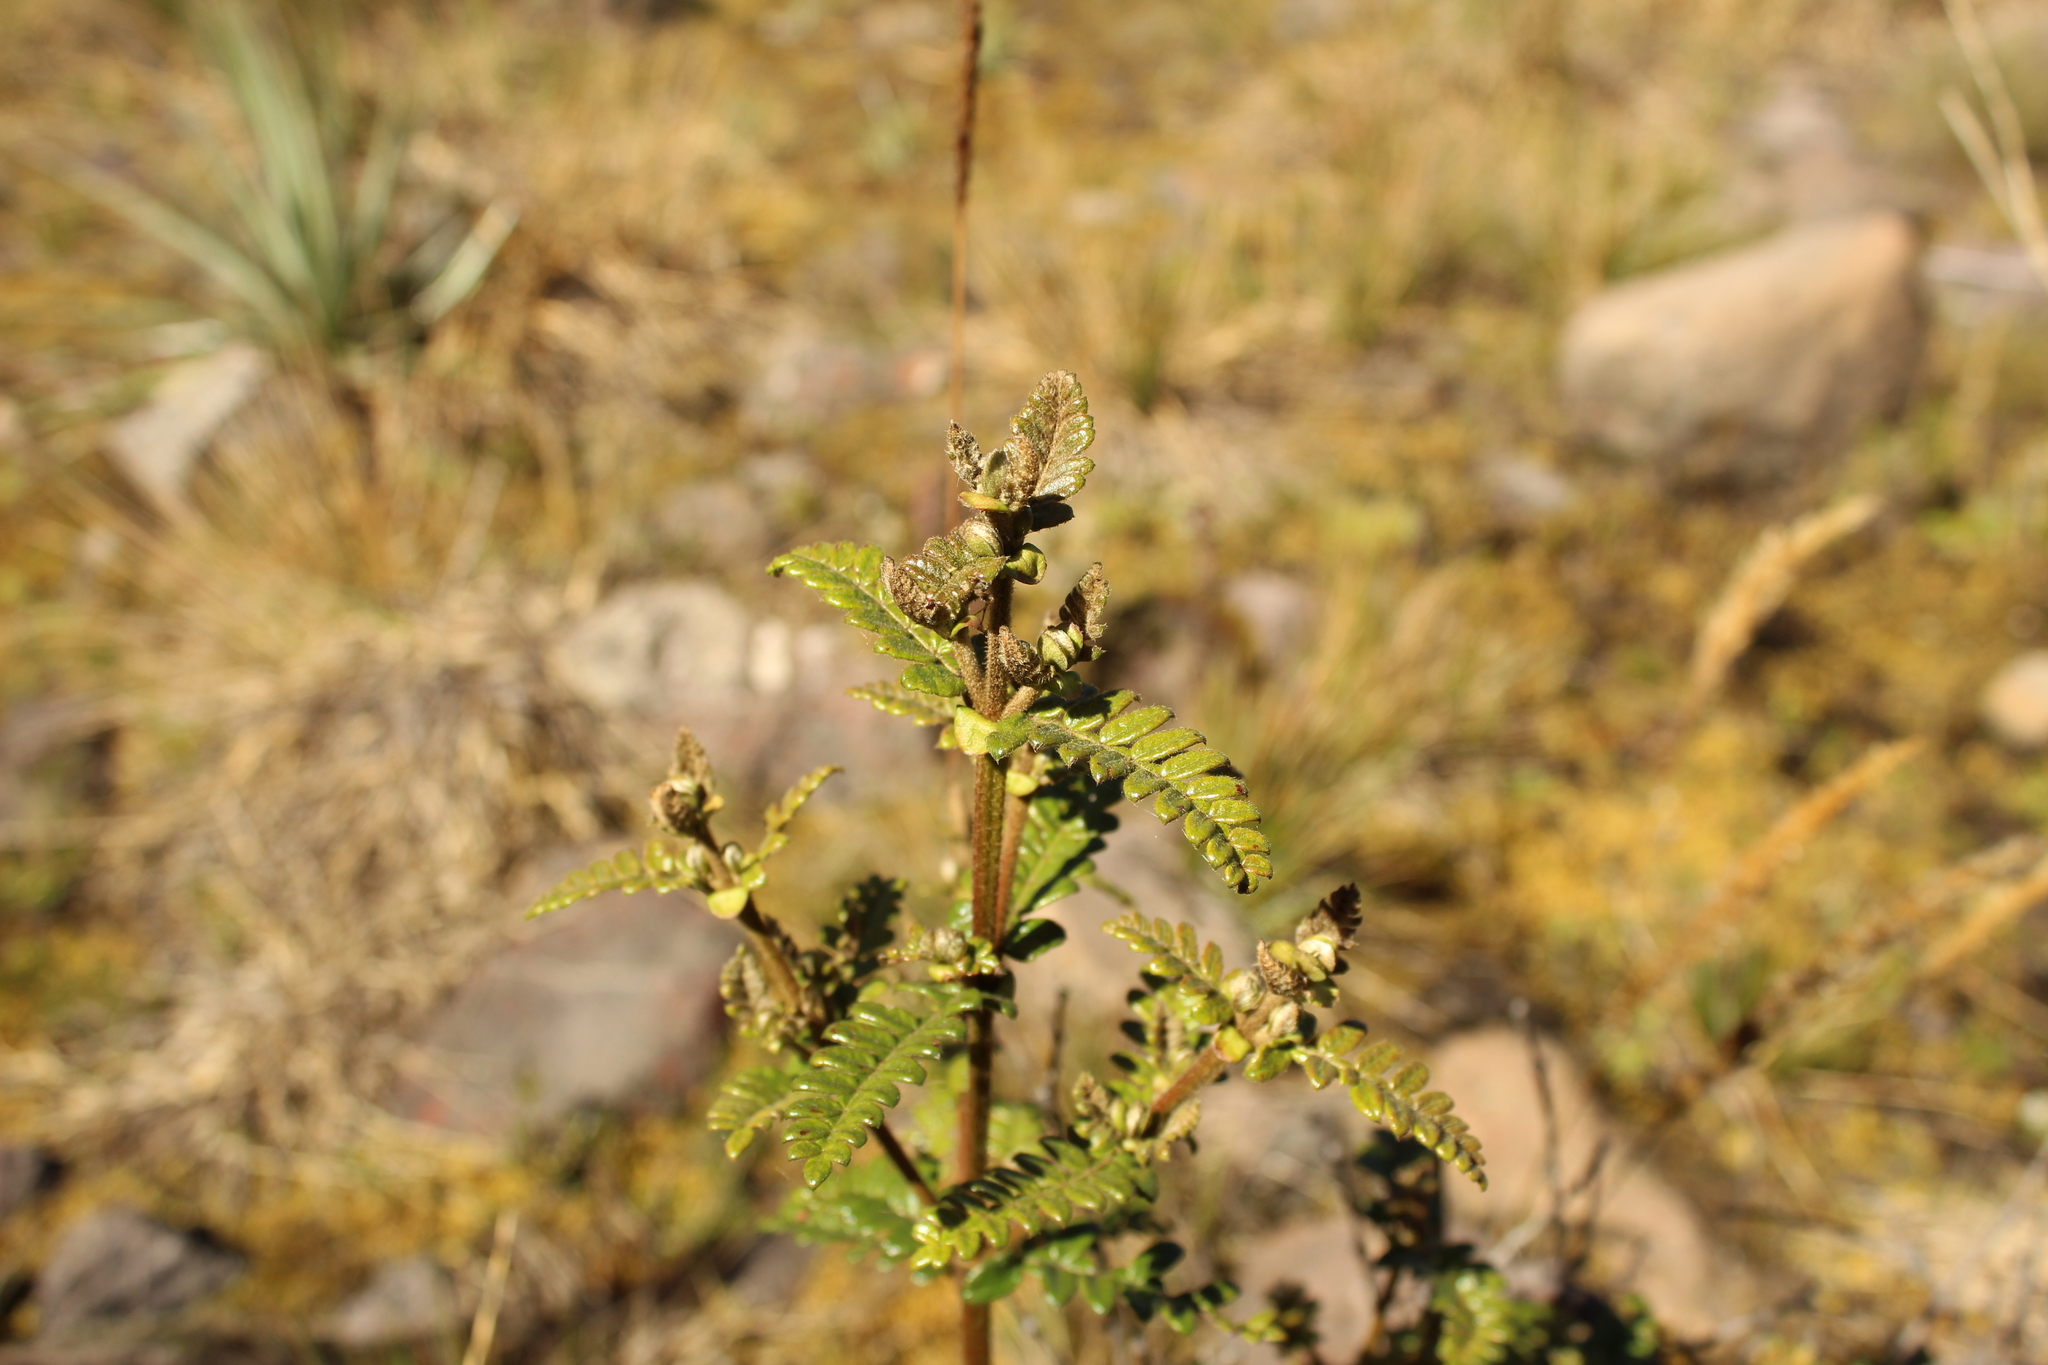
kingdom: Plantae
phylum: Tracheophyta
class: Magnoliopsida
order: Oxalidales
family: Cunoniaceae
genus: Weinmannia
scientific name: Weinmannia tomentosa
